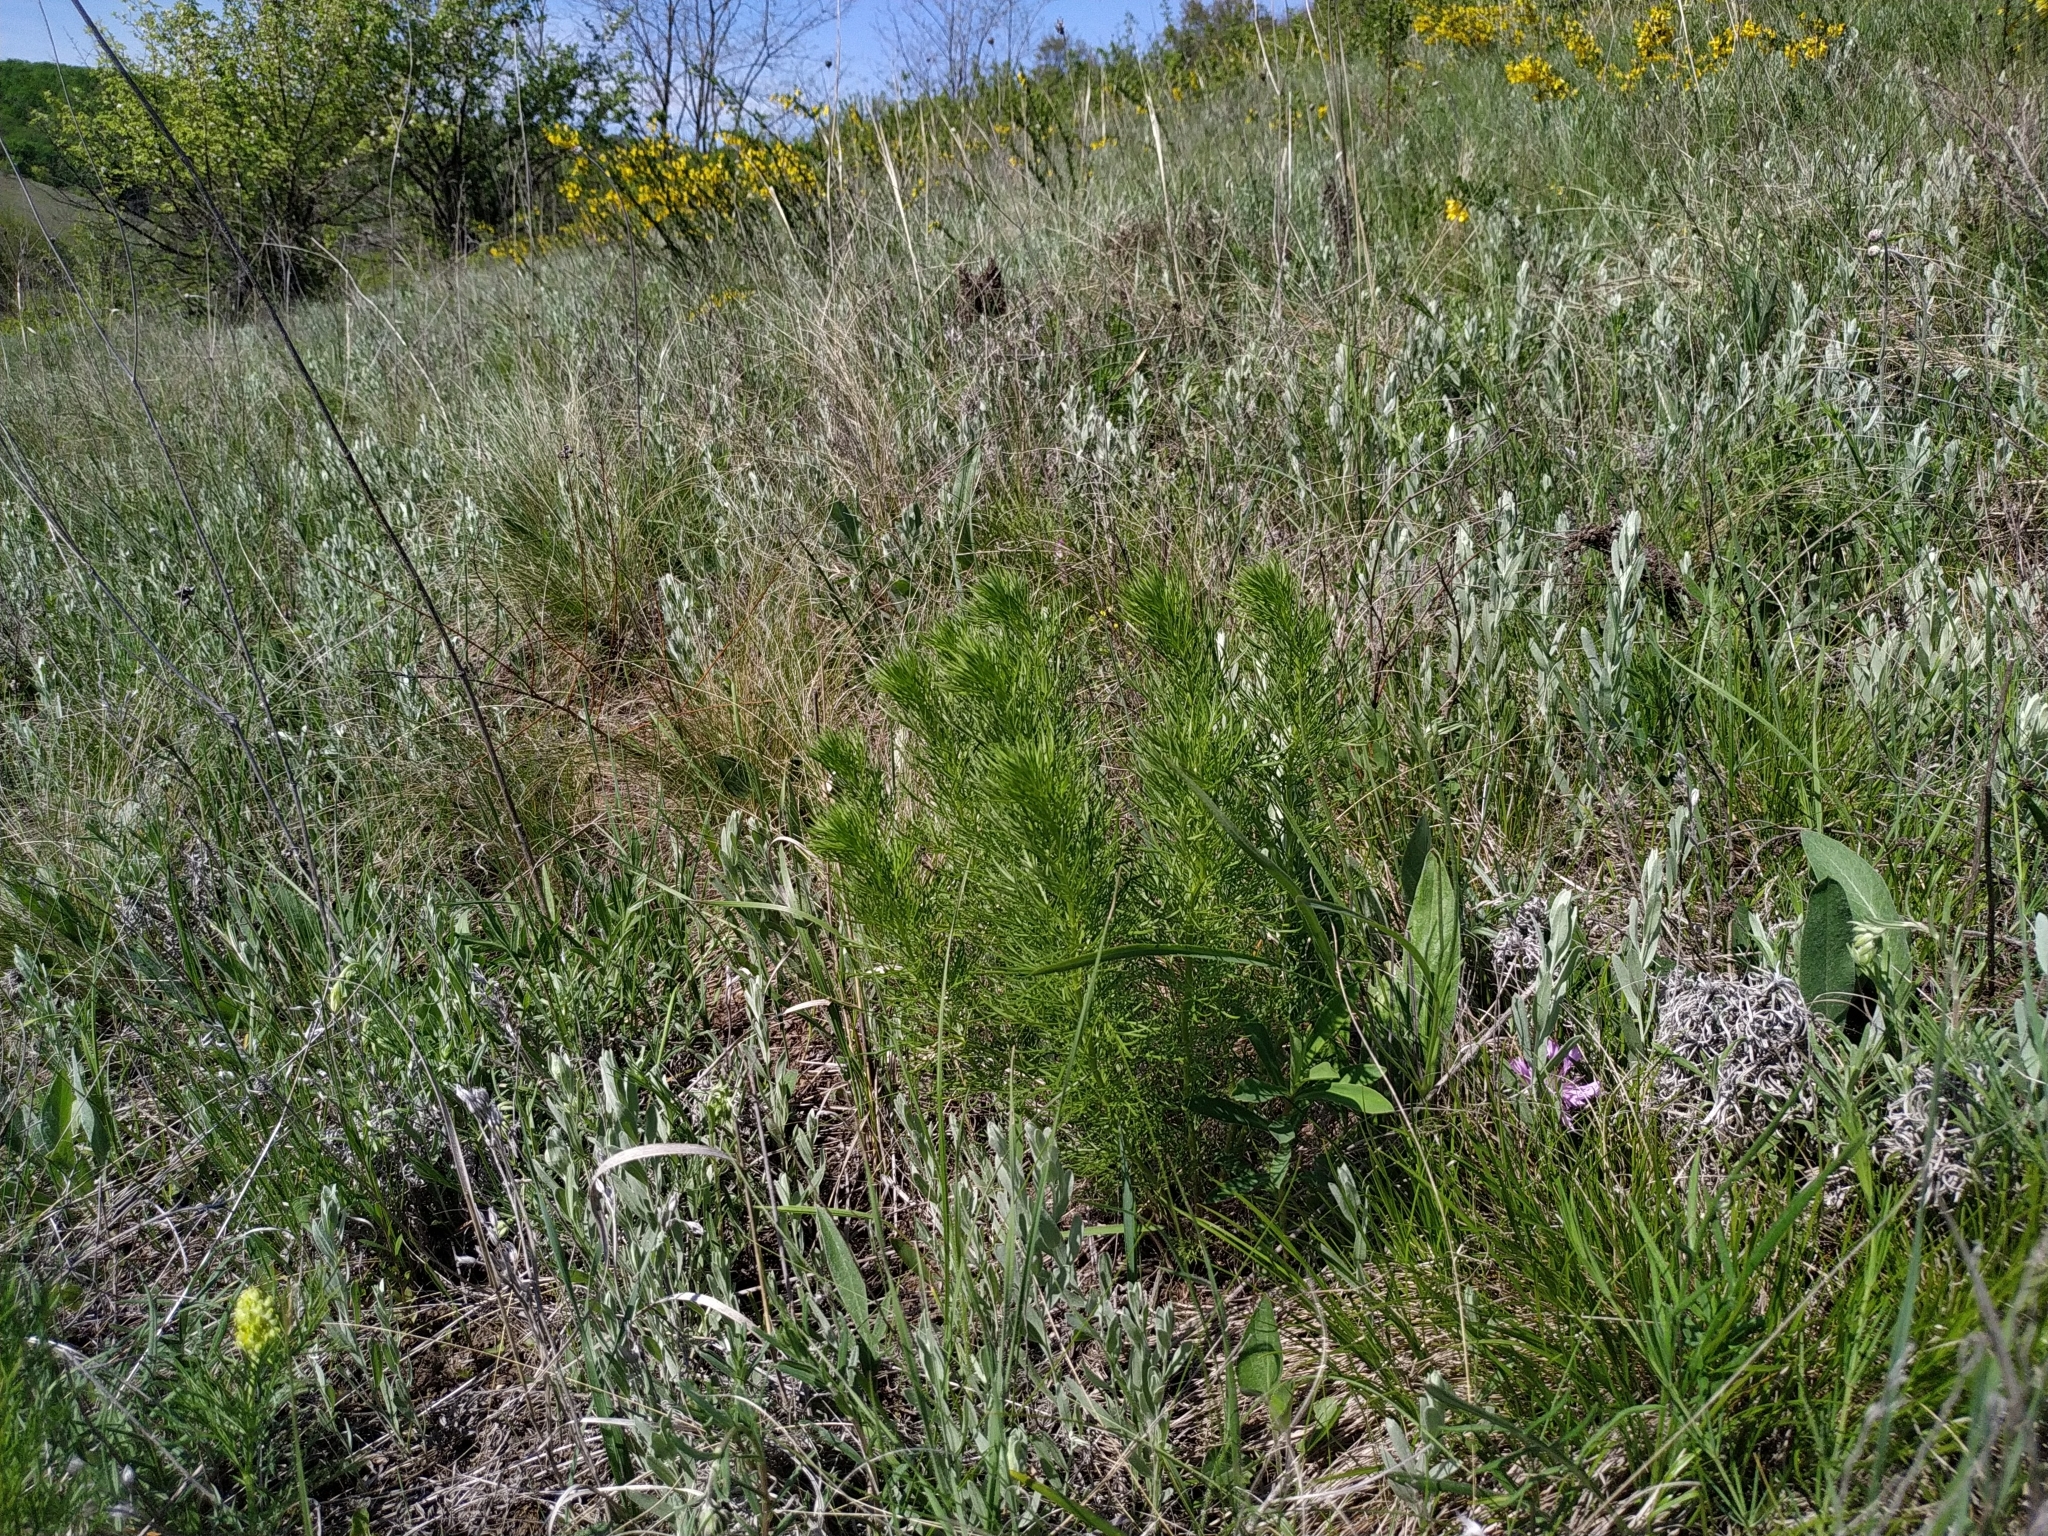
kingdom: Plantae
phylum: Tracheophyta
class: Magnoliopsida
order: Ranunculales
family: Ranunculaceae
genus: Adonis
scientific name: Adonis vernalis
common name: Yellow pheasants-eye
